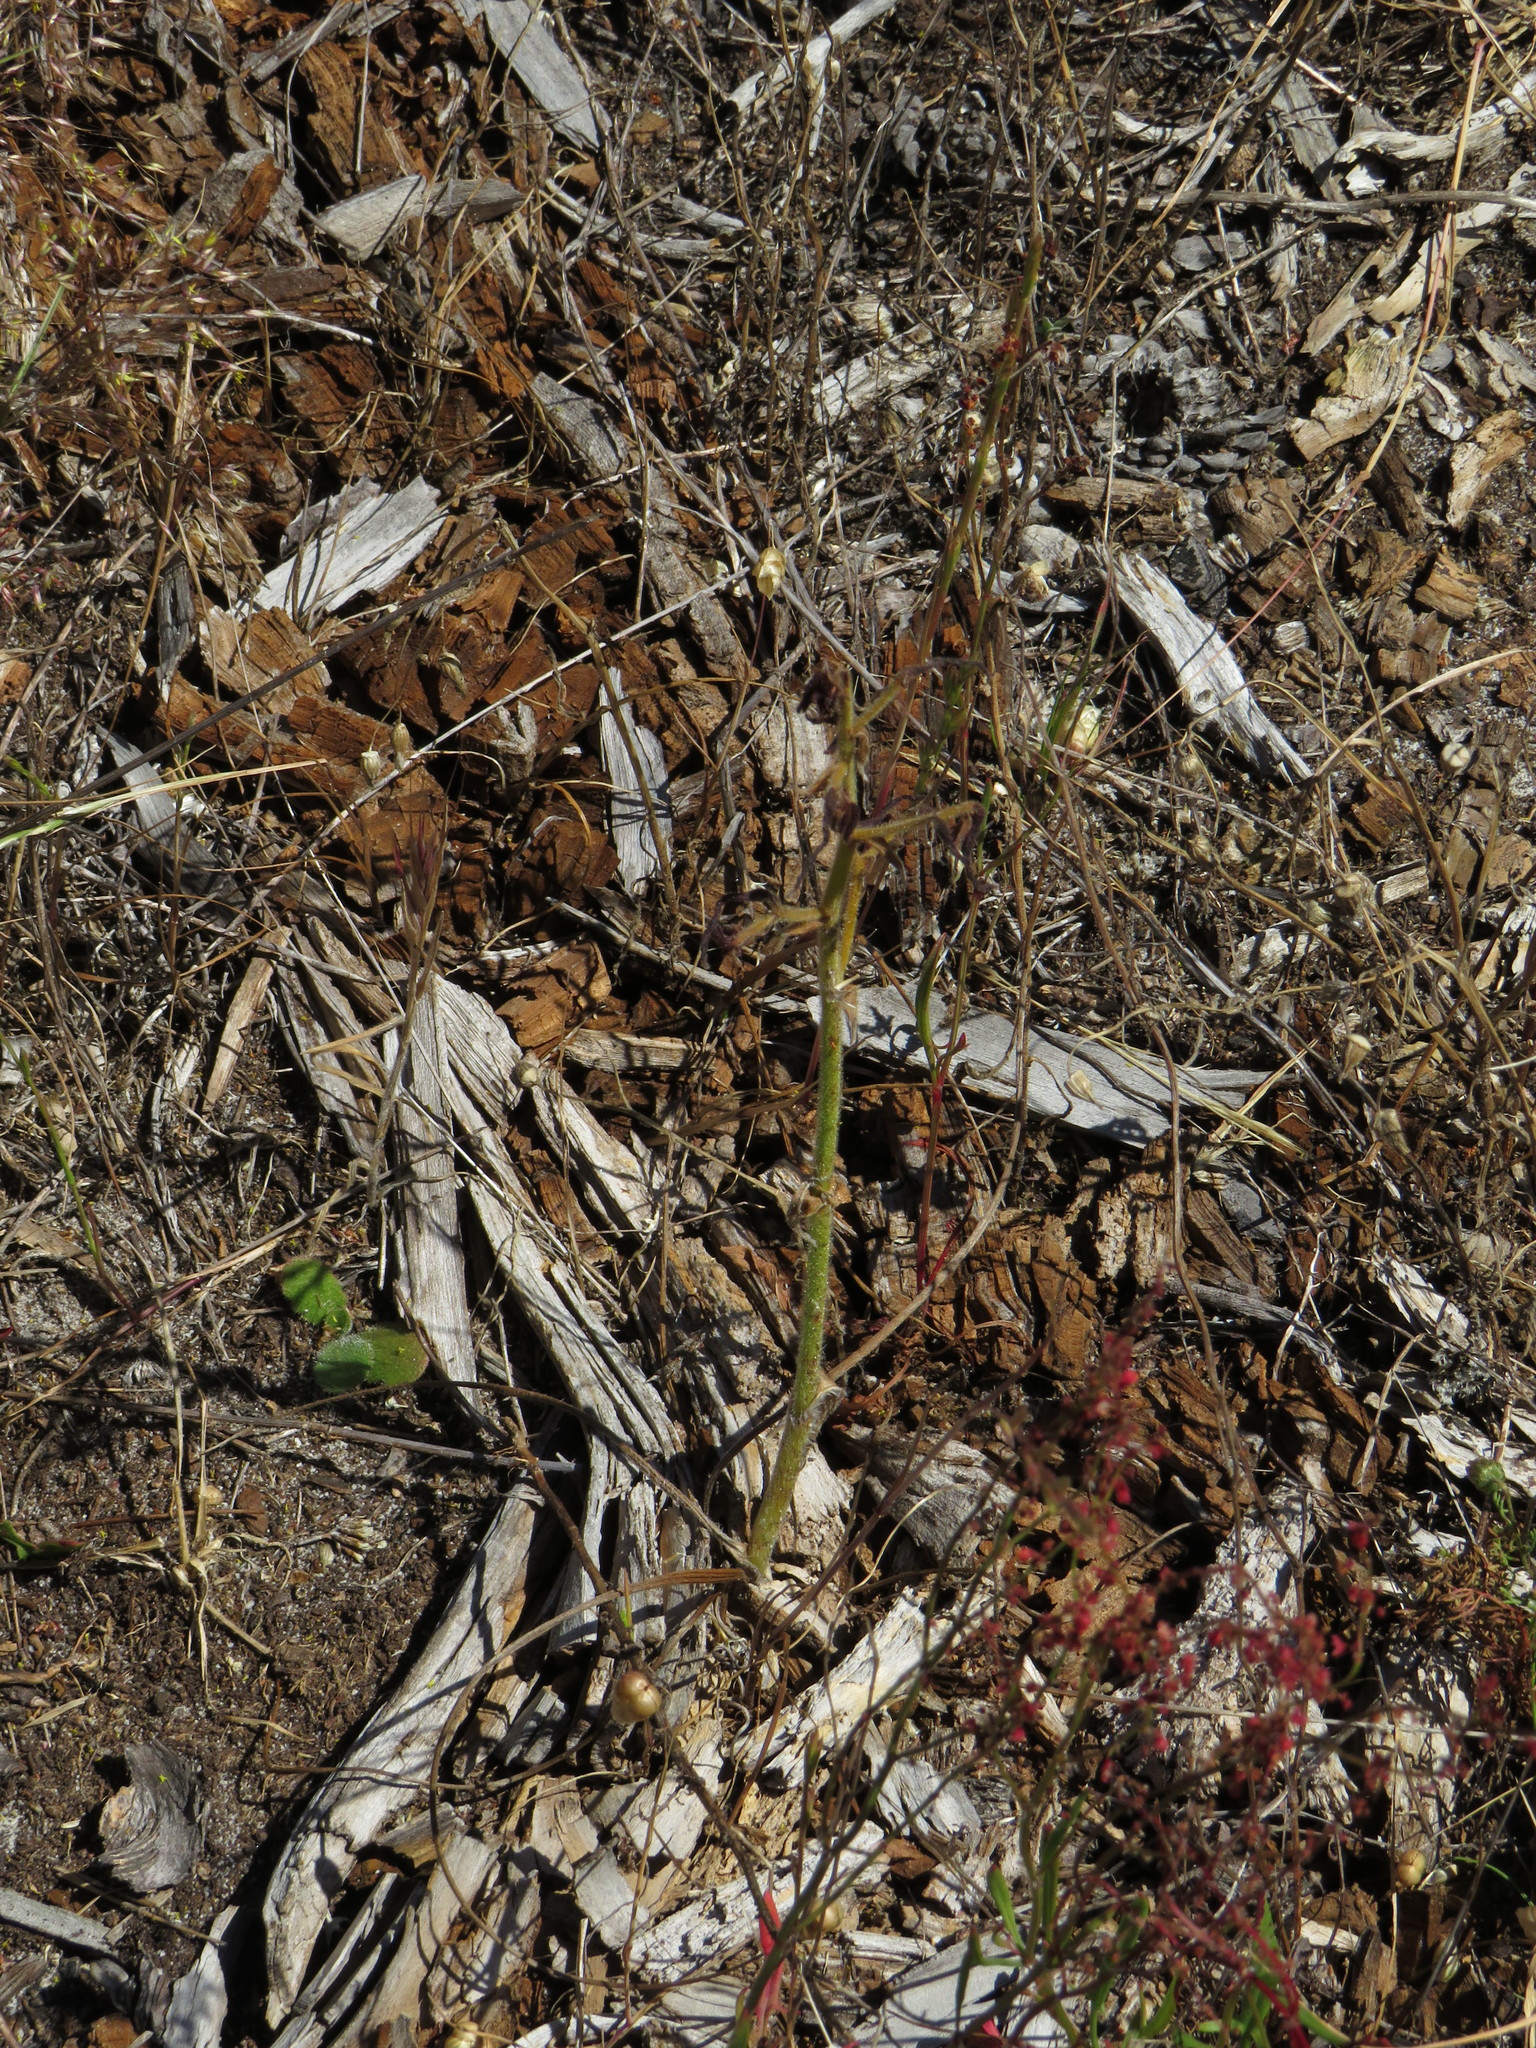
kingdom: Plantae
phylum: Tracheophyta
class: Liliopsida
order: Commelinales
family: Haemodoraceae
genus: Wachendorfia
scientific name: Wachendorfia paniculata
